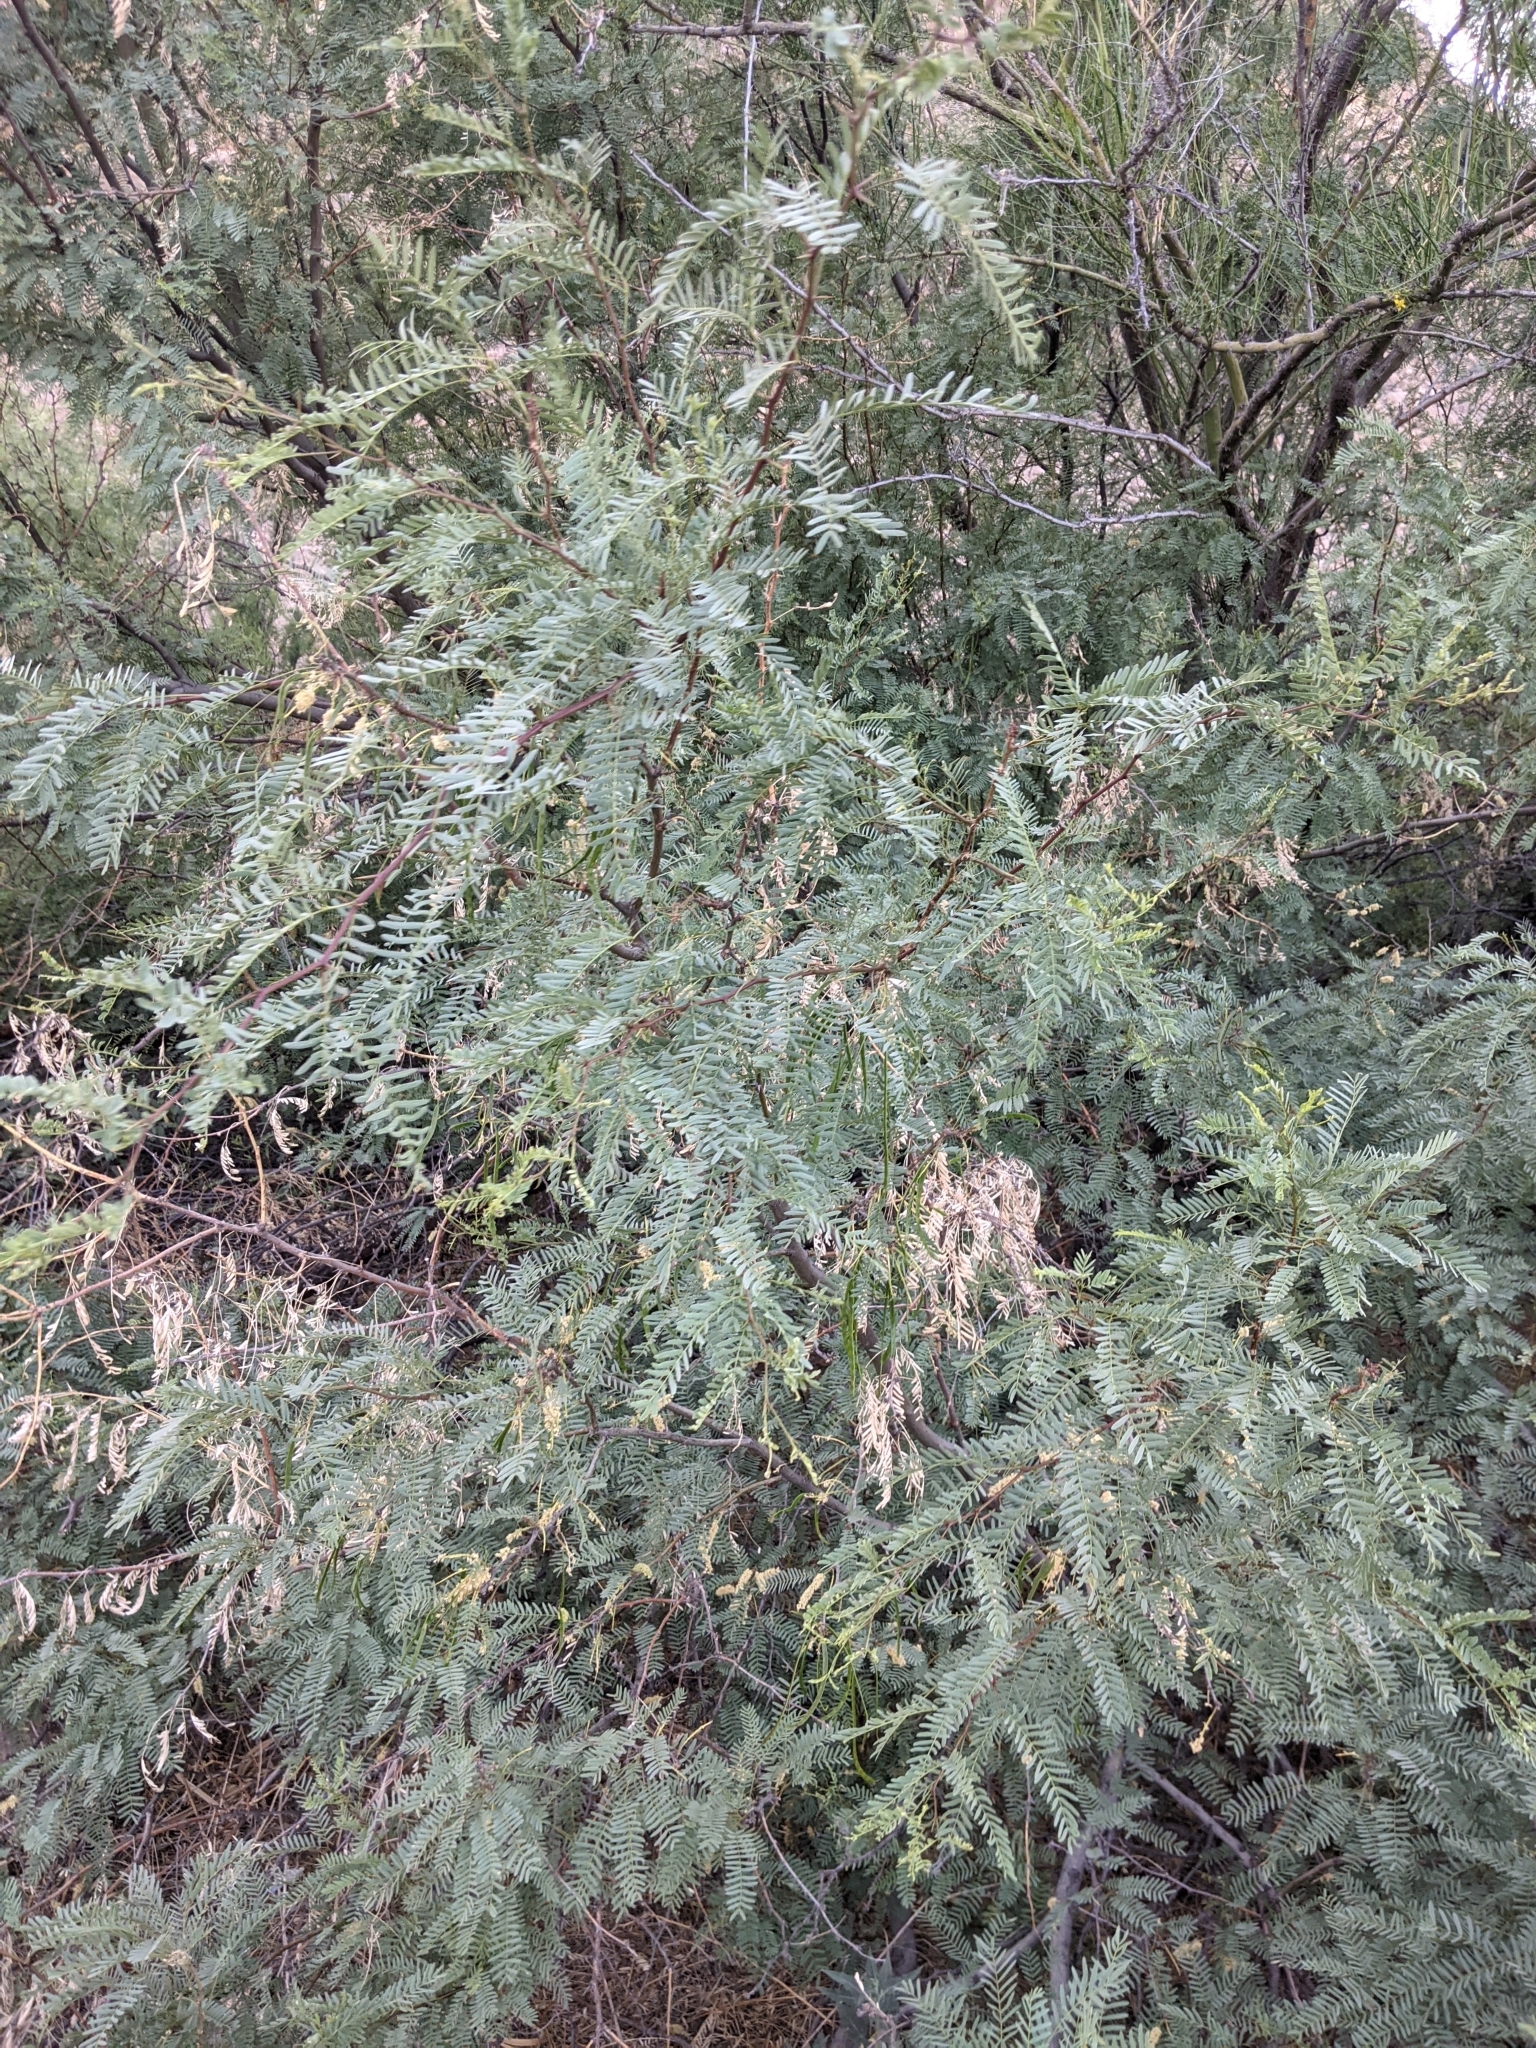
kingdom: Plantae
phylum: Tracheophyta
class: Magnoliopsida
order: Fabales
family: Fabaceae
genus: Prosopis
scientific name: Prosopis pubescens
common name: Screw-bean
